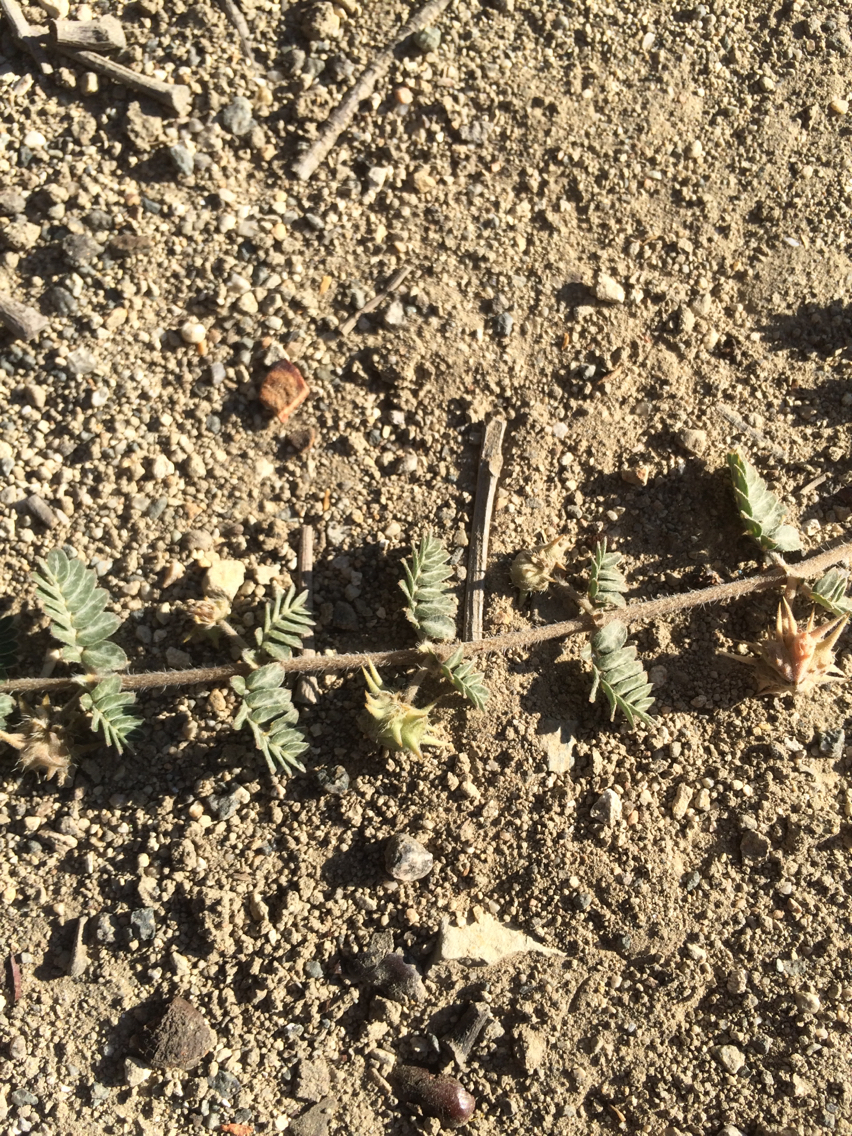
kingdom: Plantae
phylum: Tracheophyta
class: Magnoliopsida
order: Zygophyllales
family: Zygophyllaceae
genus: Tribulus
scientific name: Tribulus terrestris
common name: Puncturevine
